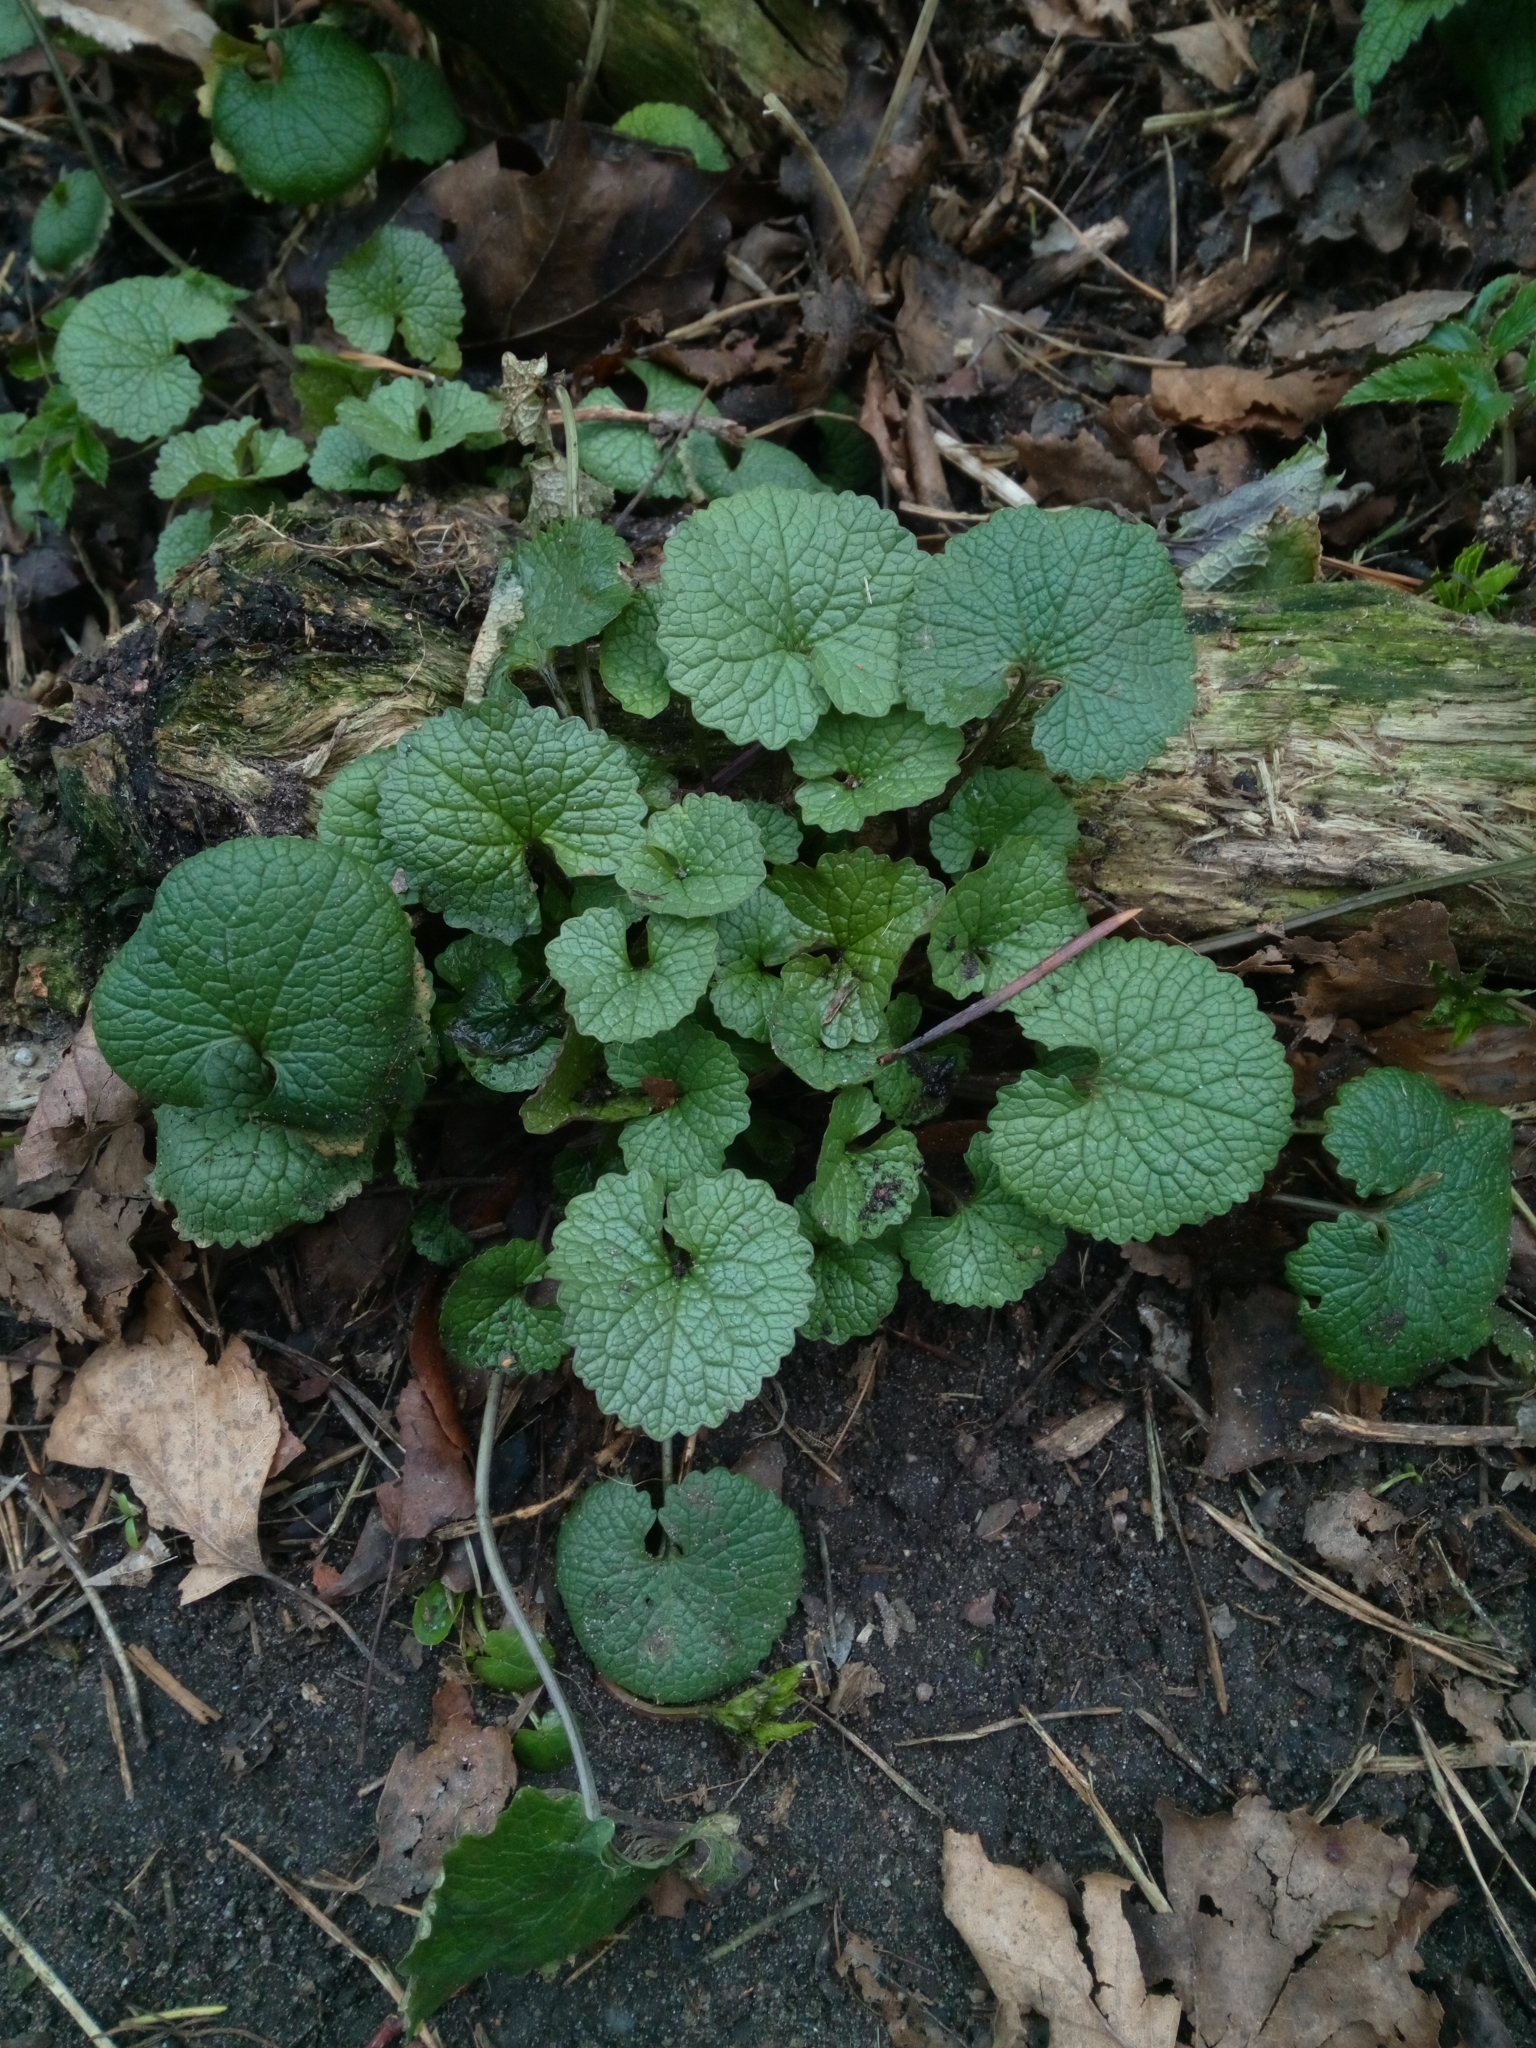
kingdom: Plantae
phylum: Tracheophyta
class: Magnoliopsida
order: Brassicales
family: Brassicaceae
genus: Alliaria
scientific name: Alliaria petiolata
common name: Garlic mustard
